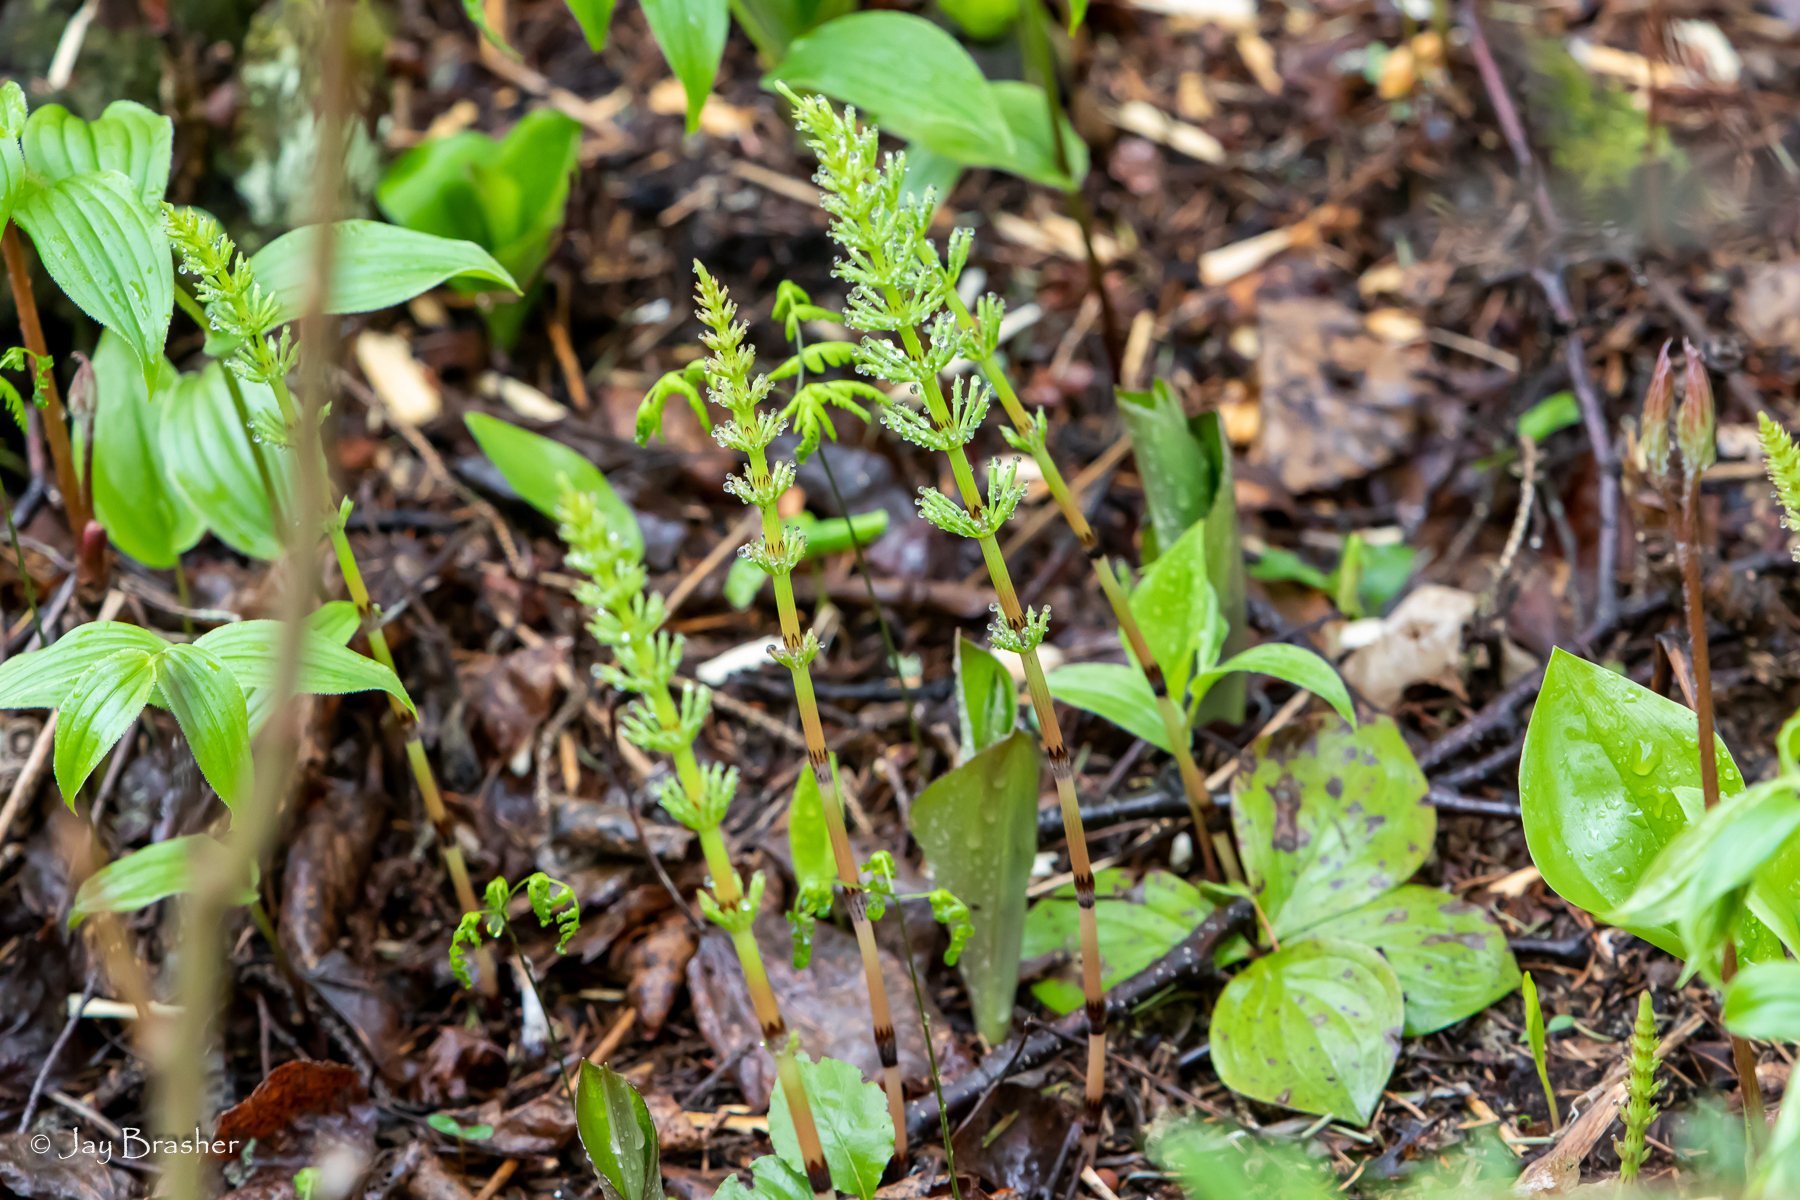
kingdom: Plantae
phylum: Tracheophyta
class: Polypodiopsida
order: Equisetales
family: Equisetaceae
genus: Equisetum
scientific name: Equisetum arvense
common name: Field horsetail
